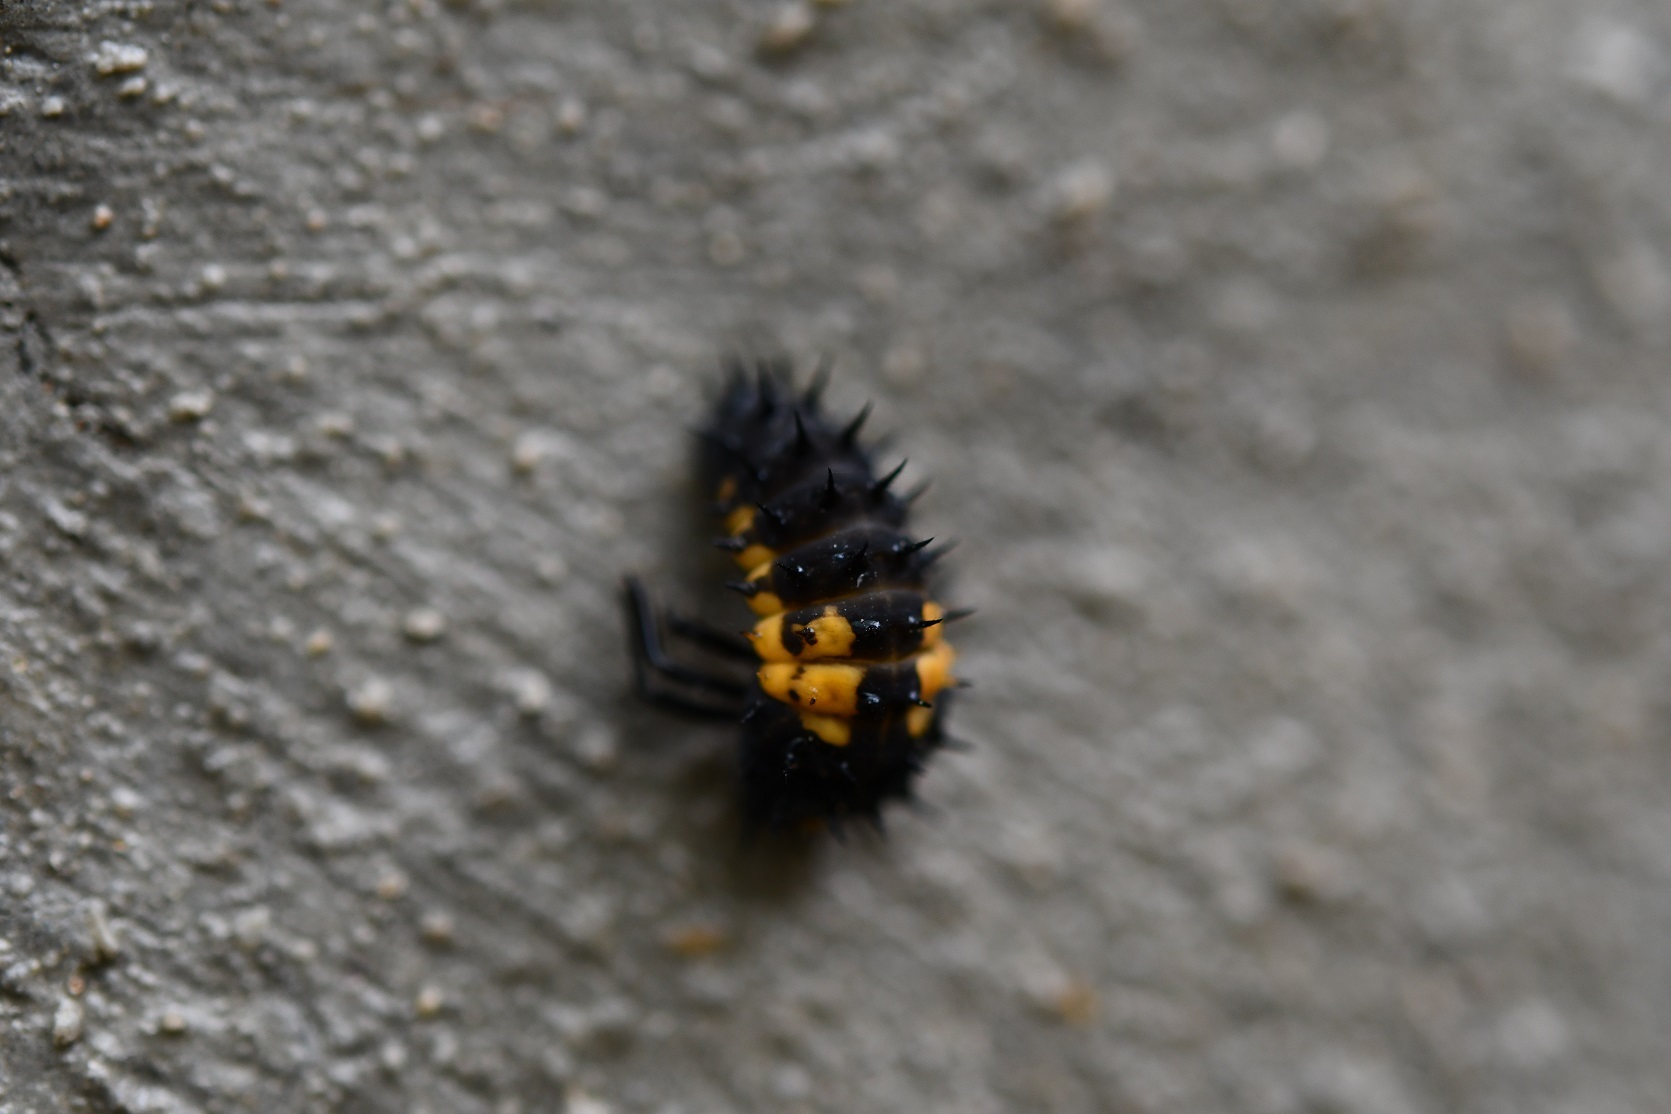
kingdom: Animalia
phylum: Arthropoda
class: Insecta
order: Coleoptera
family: Coccinellidae
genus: Harmonia
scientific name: Harmonia axyridis
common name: Harlequin ladybird
